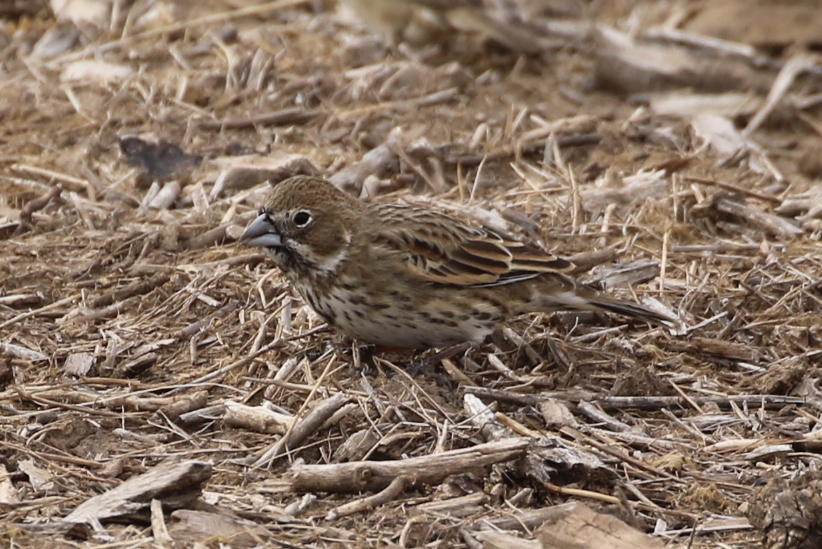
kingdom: Animalia
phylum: Chordata
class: Aves
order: Passeriformes
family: Passerellidae
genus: Calamospiza
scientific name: Calamospiza melanocorys
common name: Lark bunting
